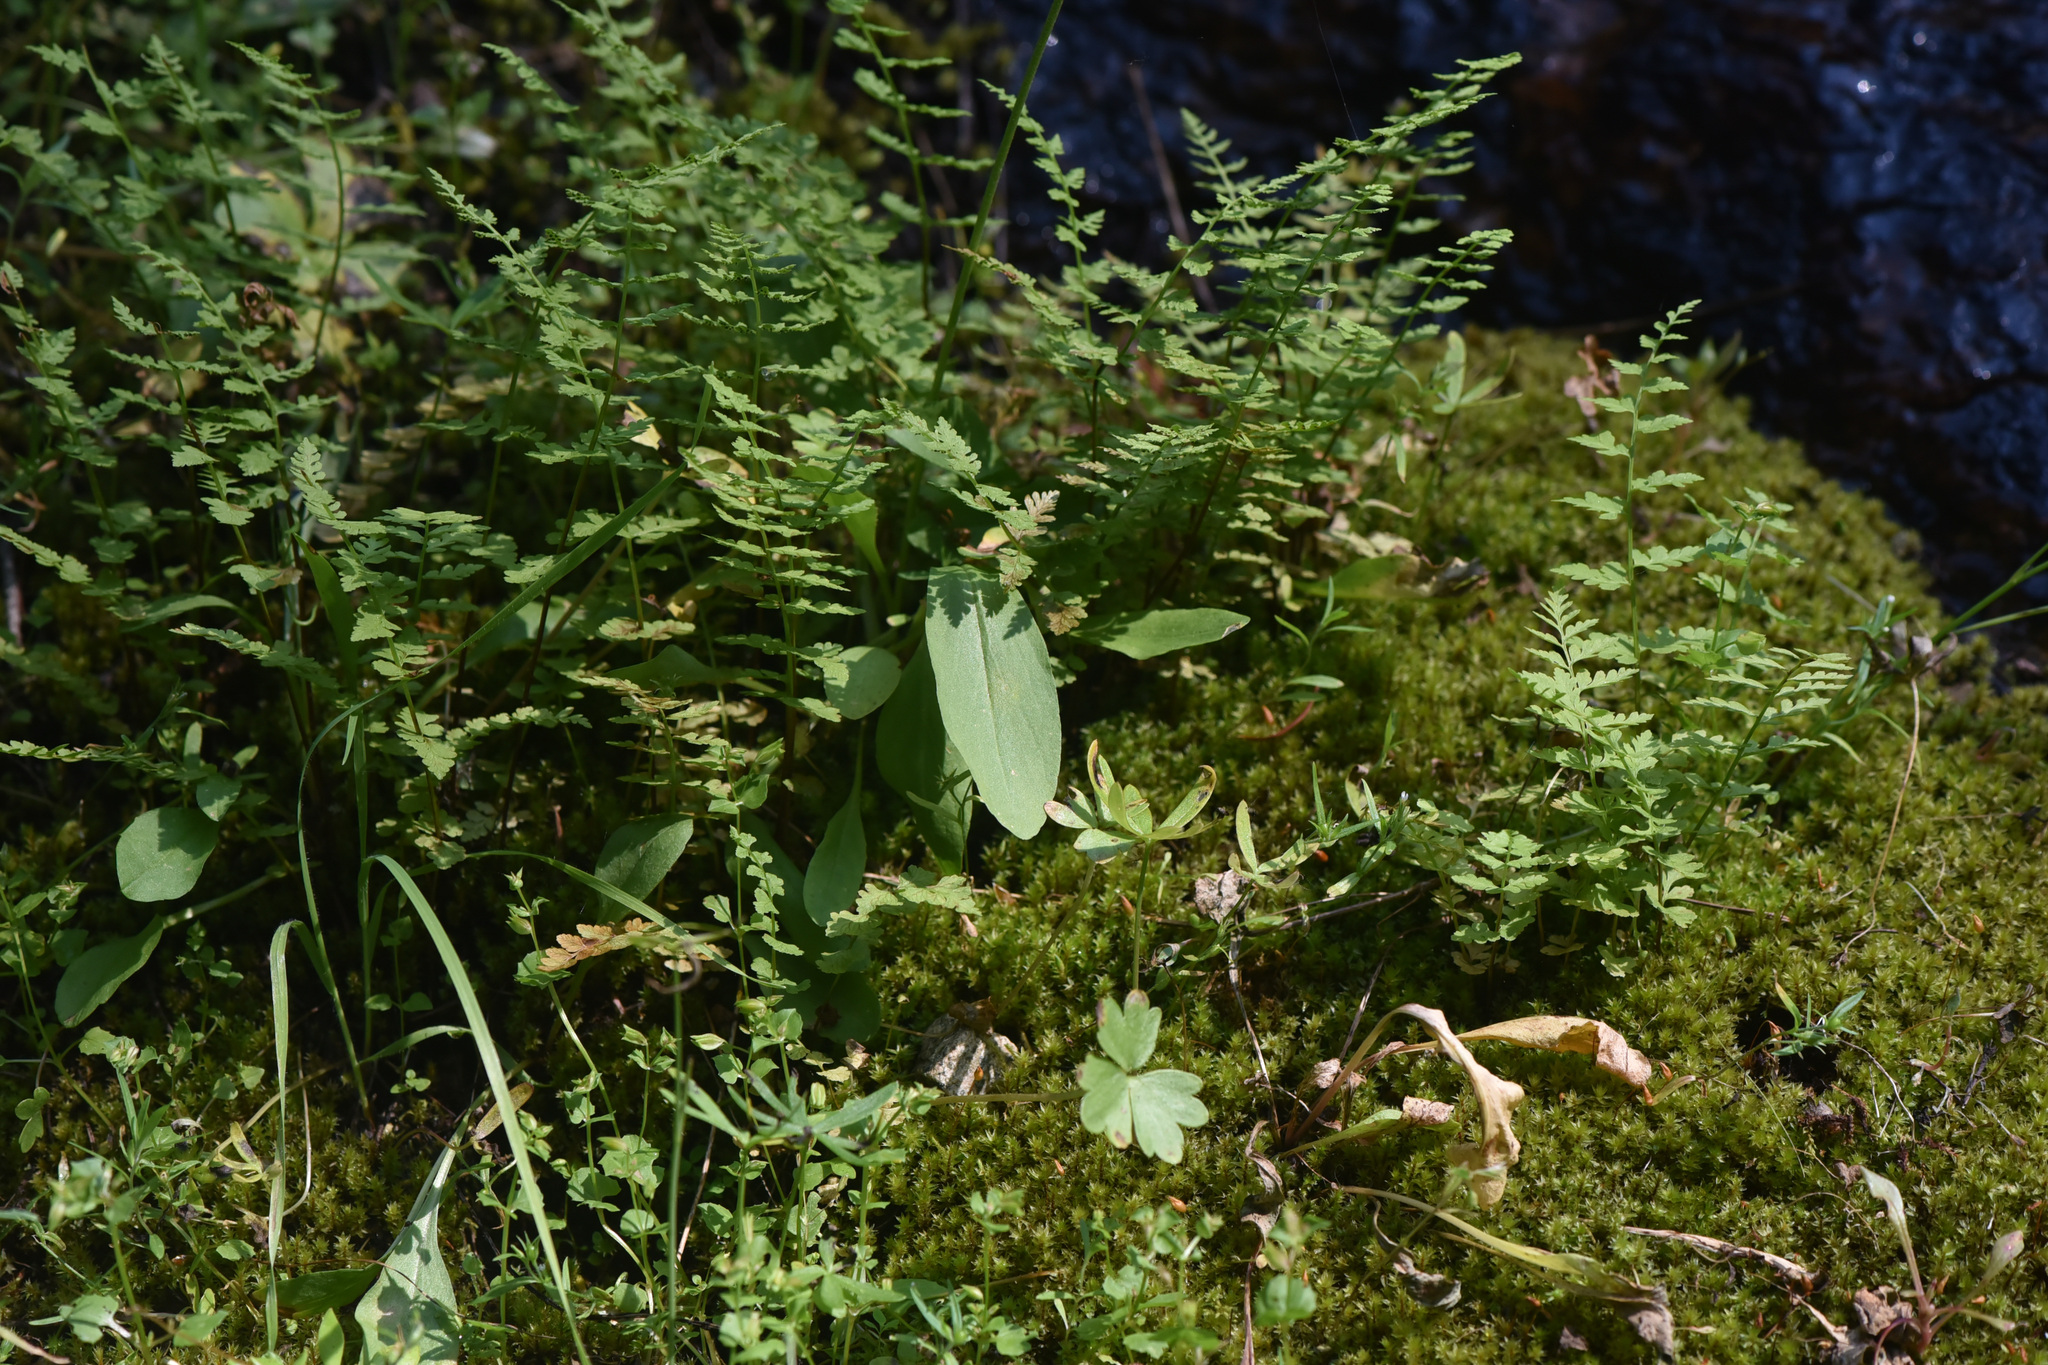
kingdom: Plantae
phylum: Tracheophyta
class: Magnoliopsida
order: Ericales
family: Primulaceae
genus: Dodecatheon
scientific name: Dodecatheon pulchellum
